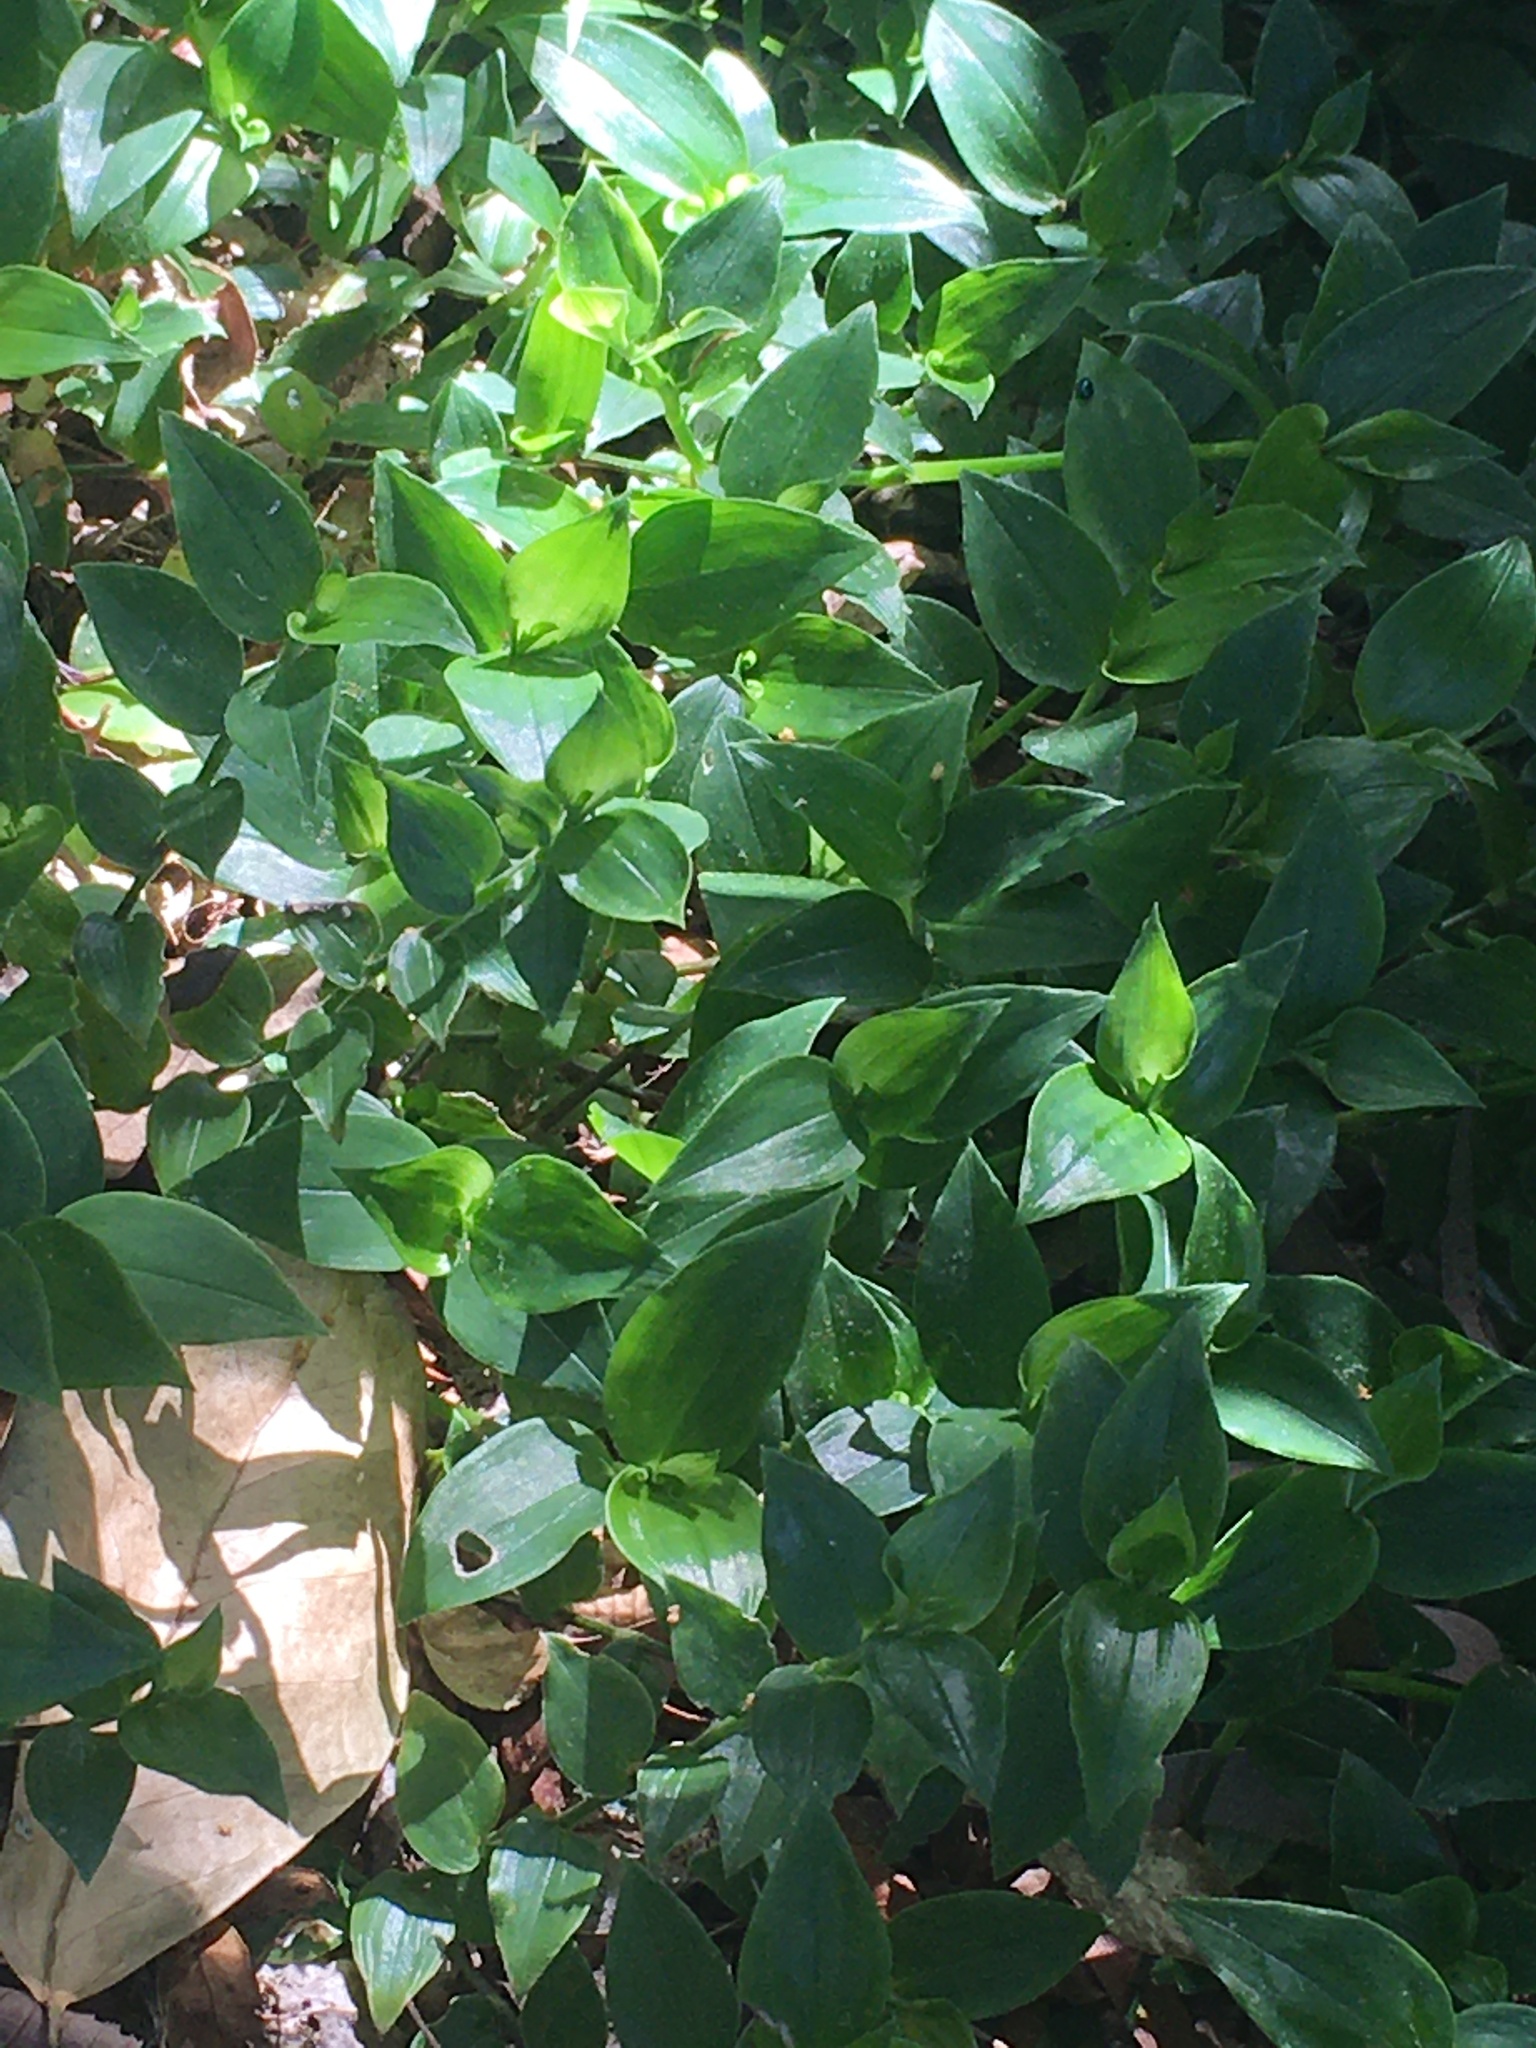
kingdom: Plantae
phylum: Tracheophyta
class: Liliopsida
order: Commelinales
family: Commelinaceae
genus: Tradescantia
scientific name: Tradescantia fluminensis
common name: Wandering-jew
